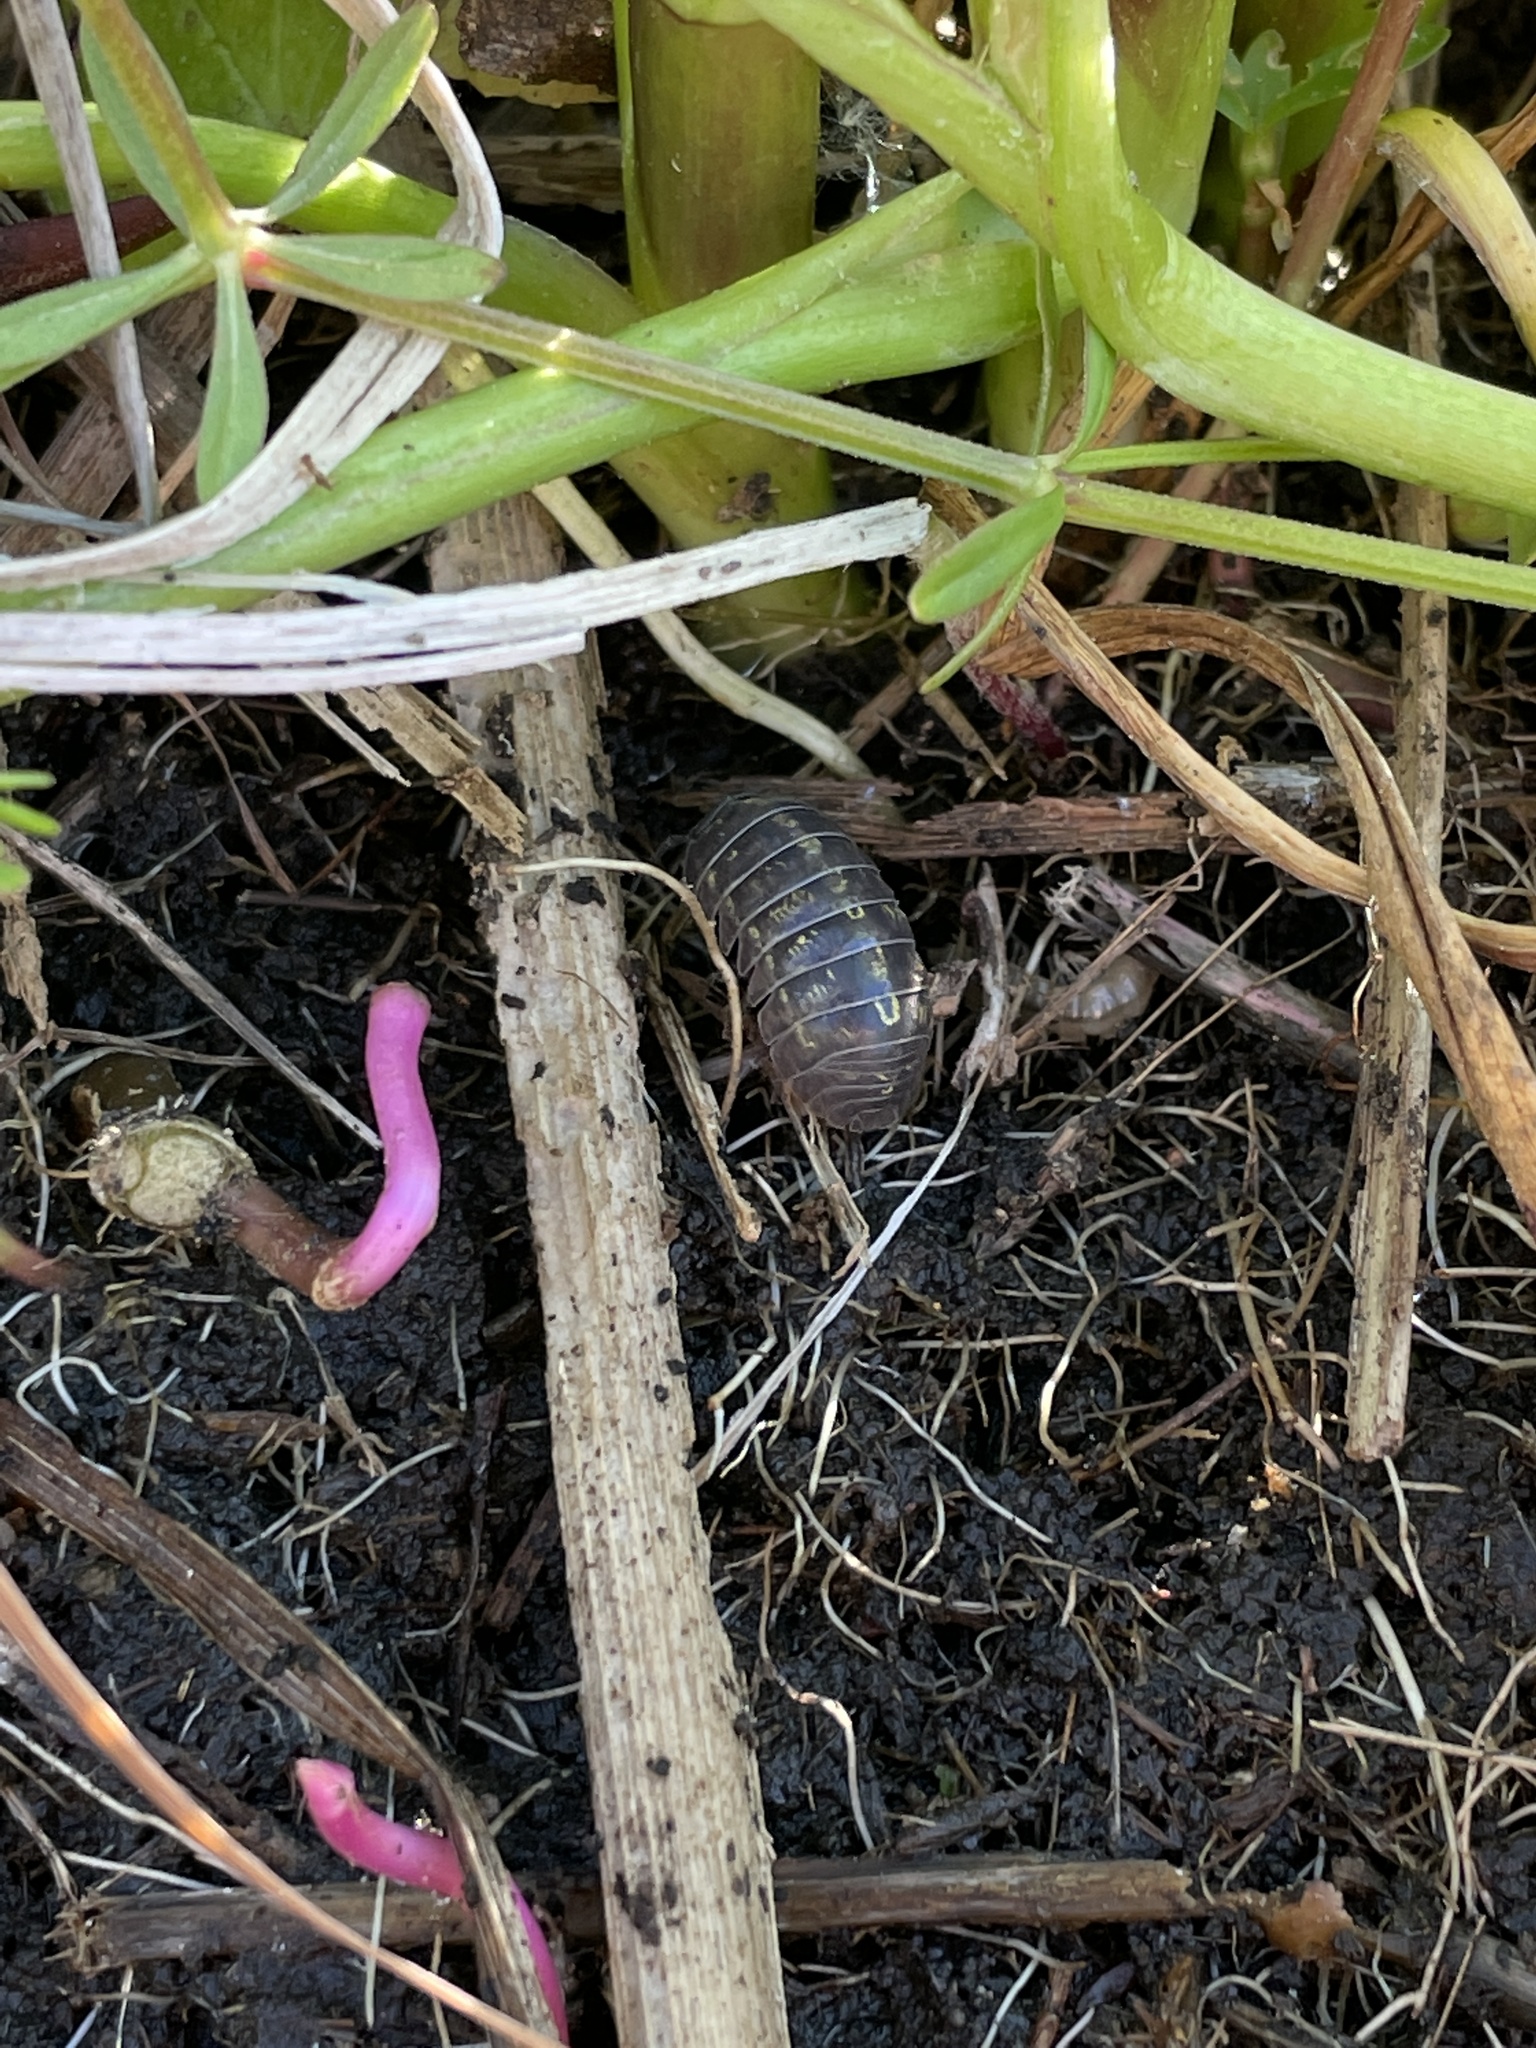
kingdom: Animalia
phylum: Arthropoda
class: Malacostraca
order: Isopoda
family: Armadillidiidae
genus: Armadillidium
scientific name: Armadillidium vulgare
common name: Common pill woodlouse
